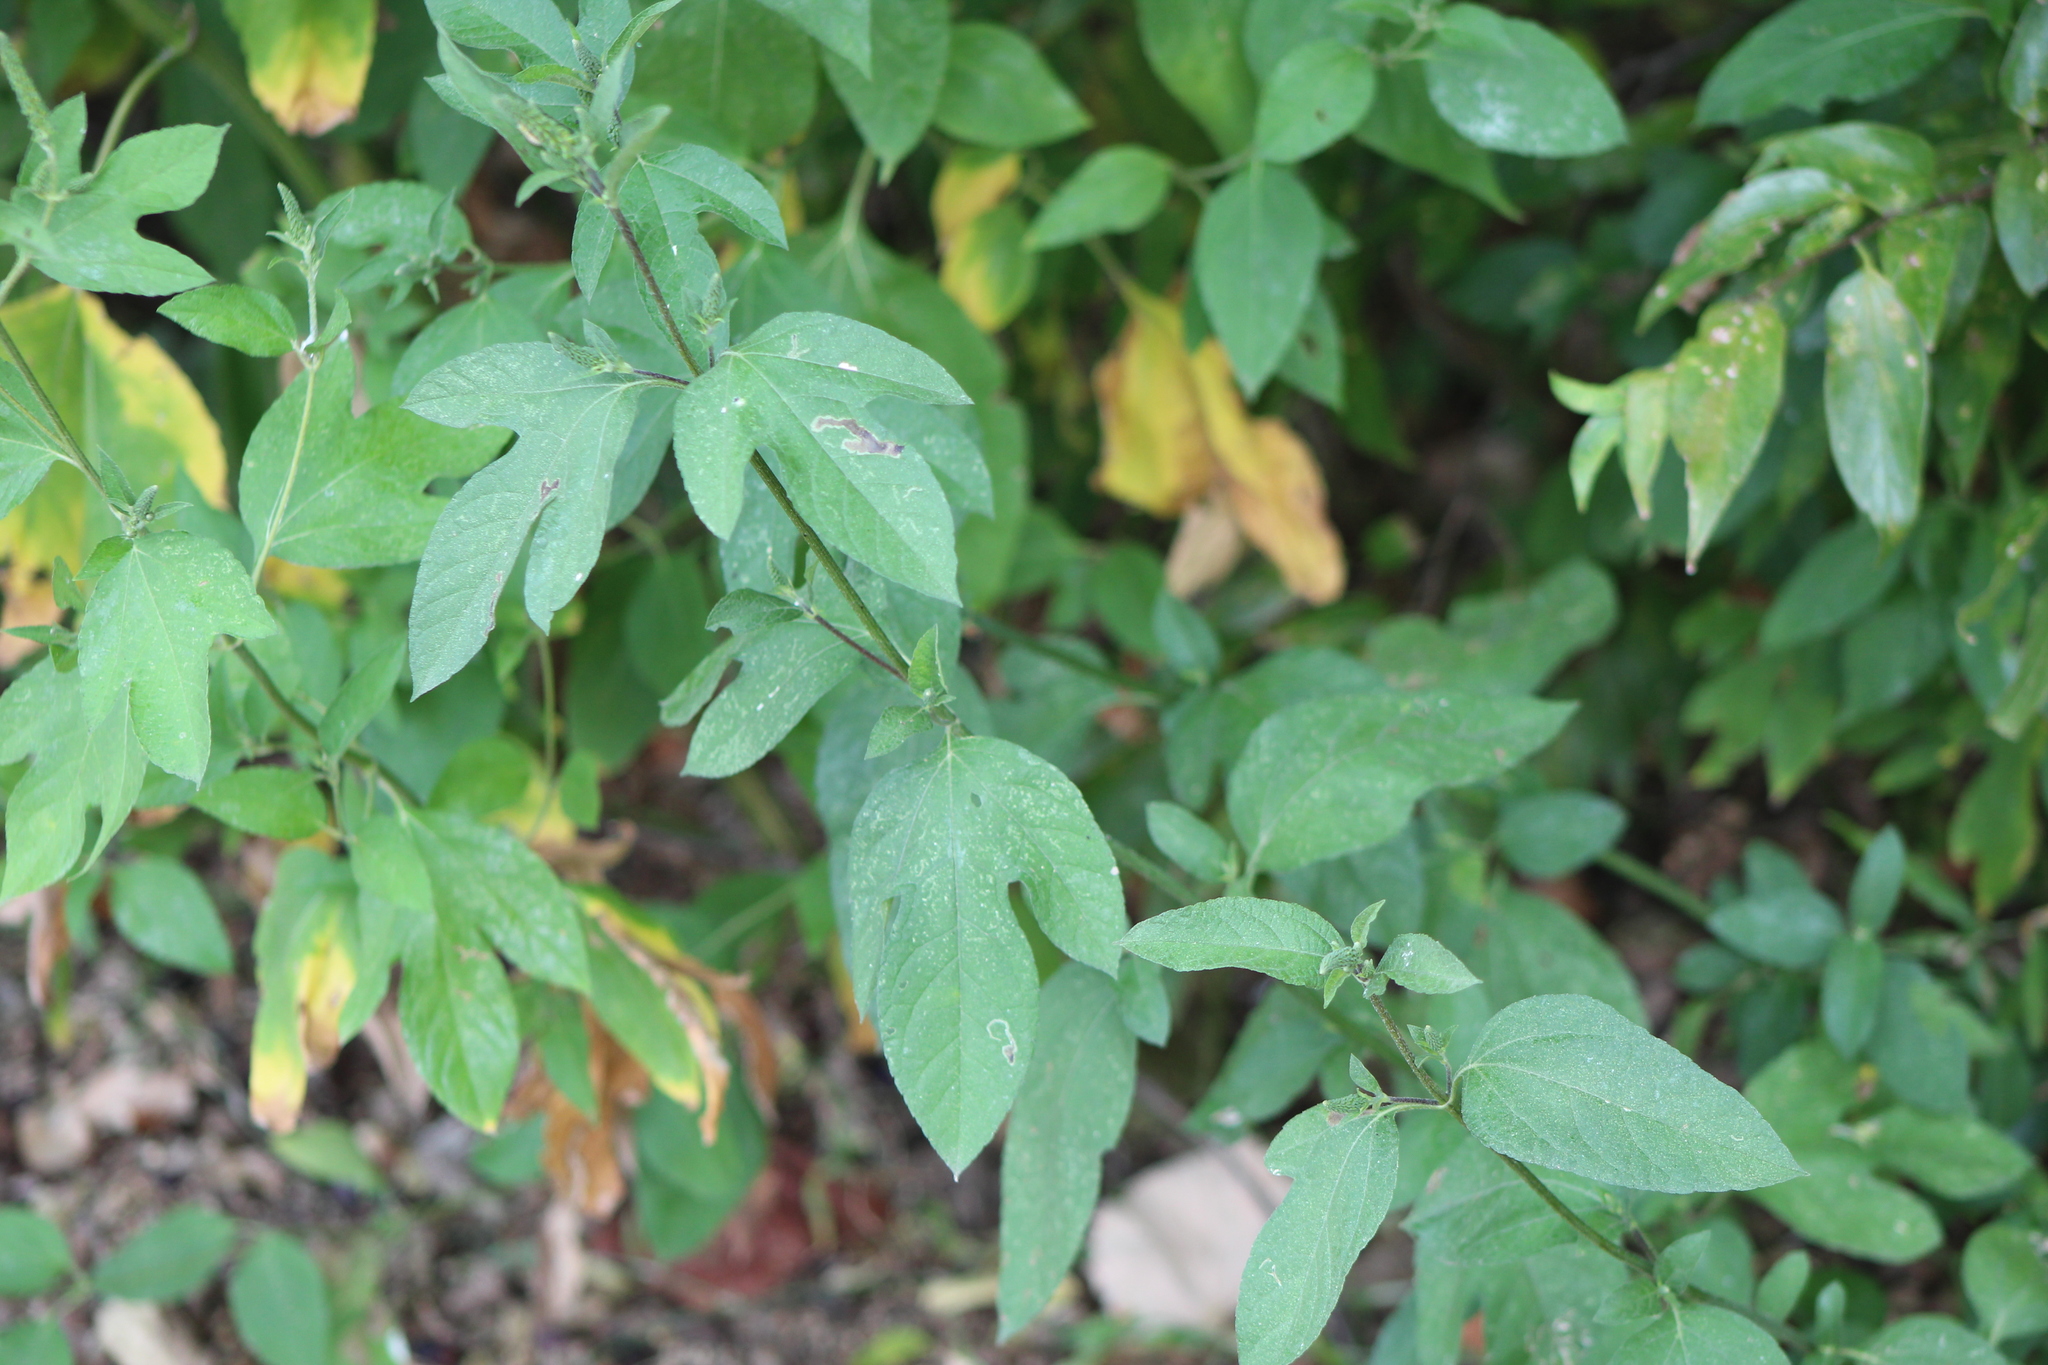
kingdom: Plantae
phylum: Tracheophyta
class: Magnoliopsida
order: Asterales
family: Asteraceae
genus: Ambrosia
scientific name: Ambrosia trifida
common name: Giant ragweed
